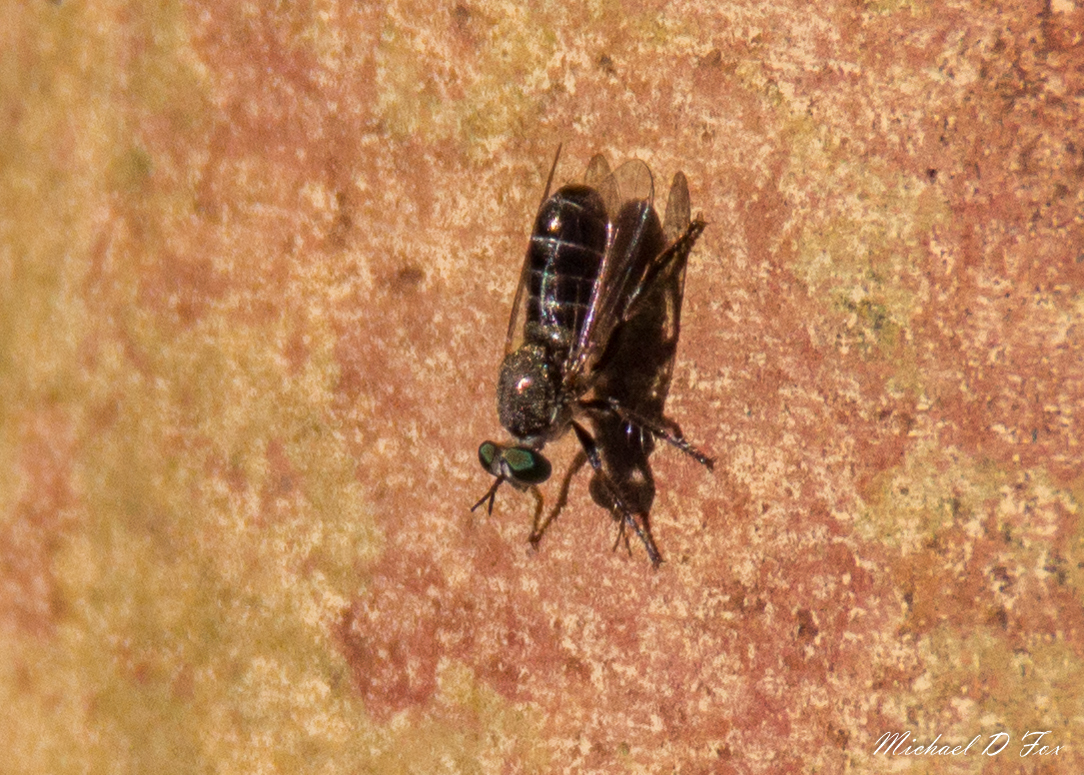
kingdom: Animalia
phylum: Arthropoda
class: Insecta
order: Diptera
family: Asilidae
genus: Atomosia
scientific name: Atomosia
